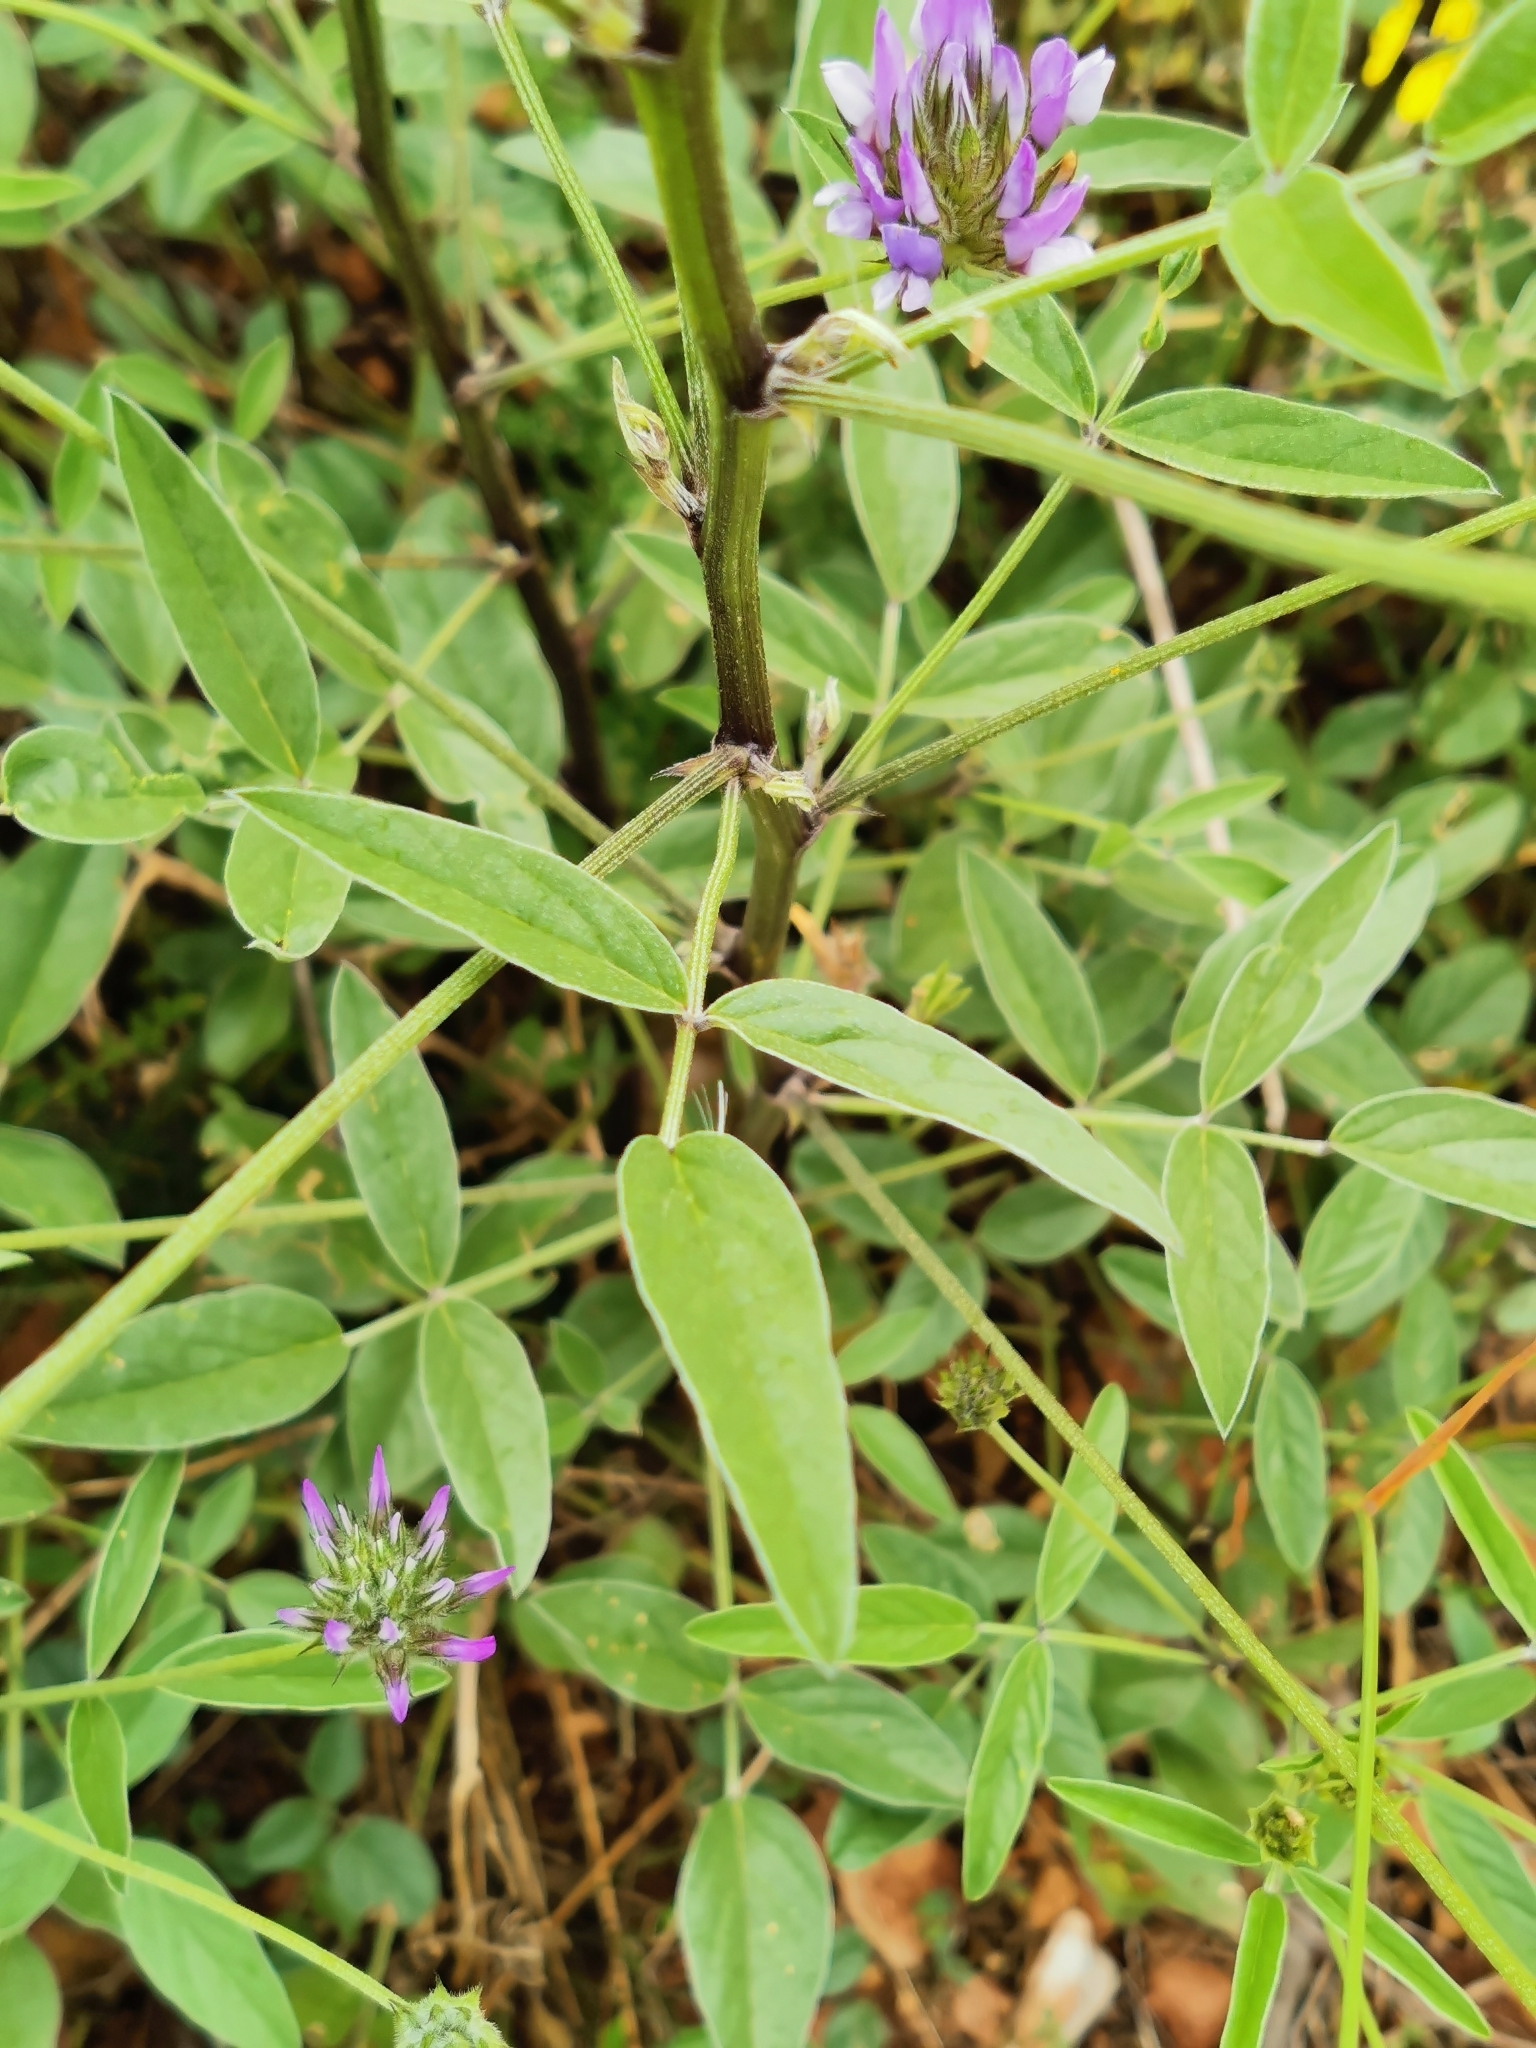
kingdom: Plantae
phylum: Tracheophyta
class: Magnoliopsida
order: Fabales
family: Fabaceae
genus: Bituminaria
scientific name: Bituminaria bituminosa
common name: Arabian pea
